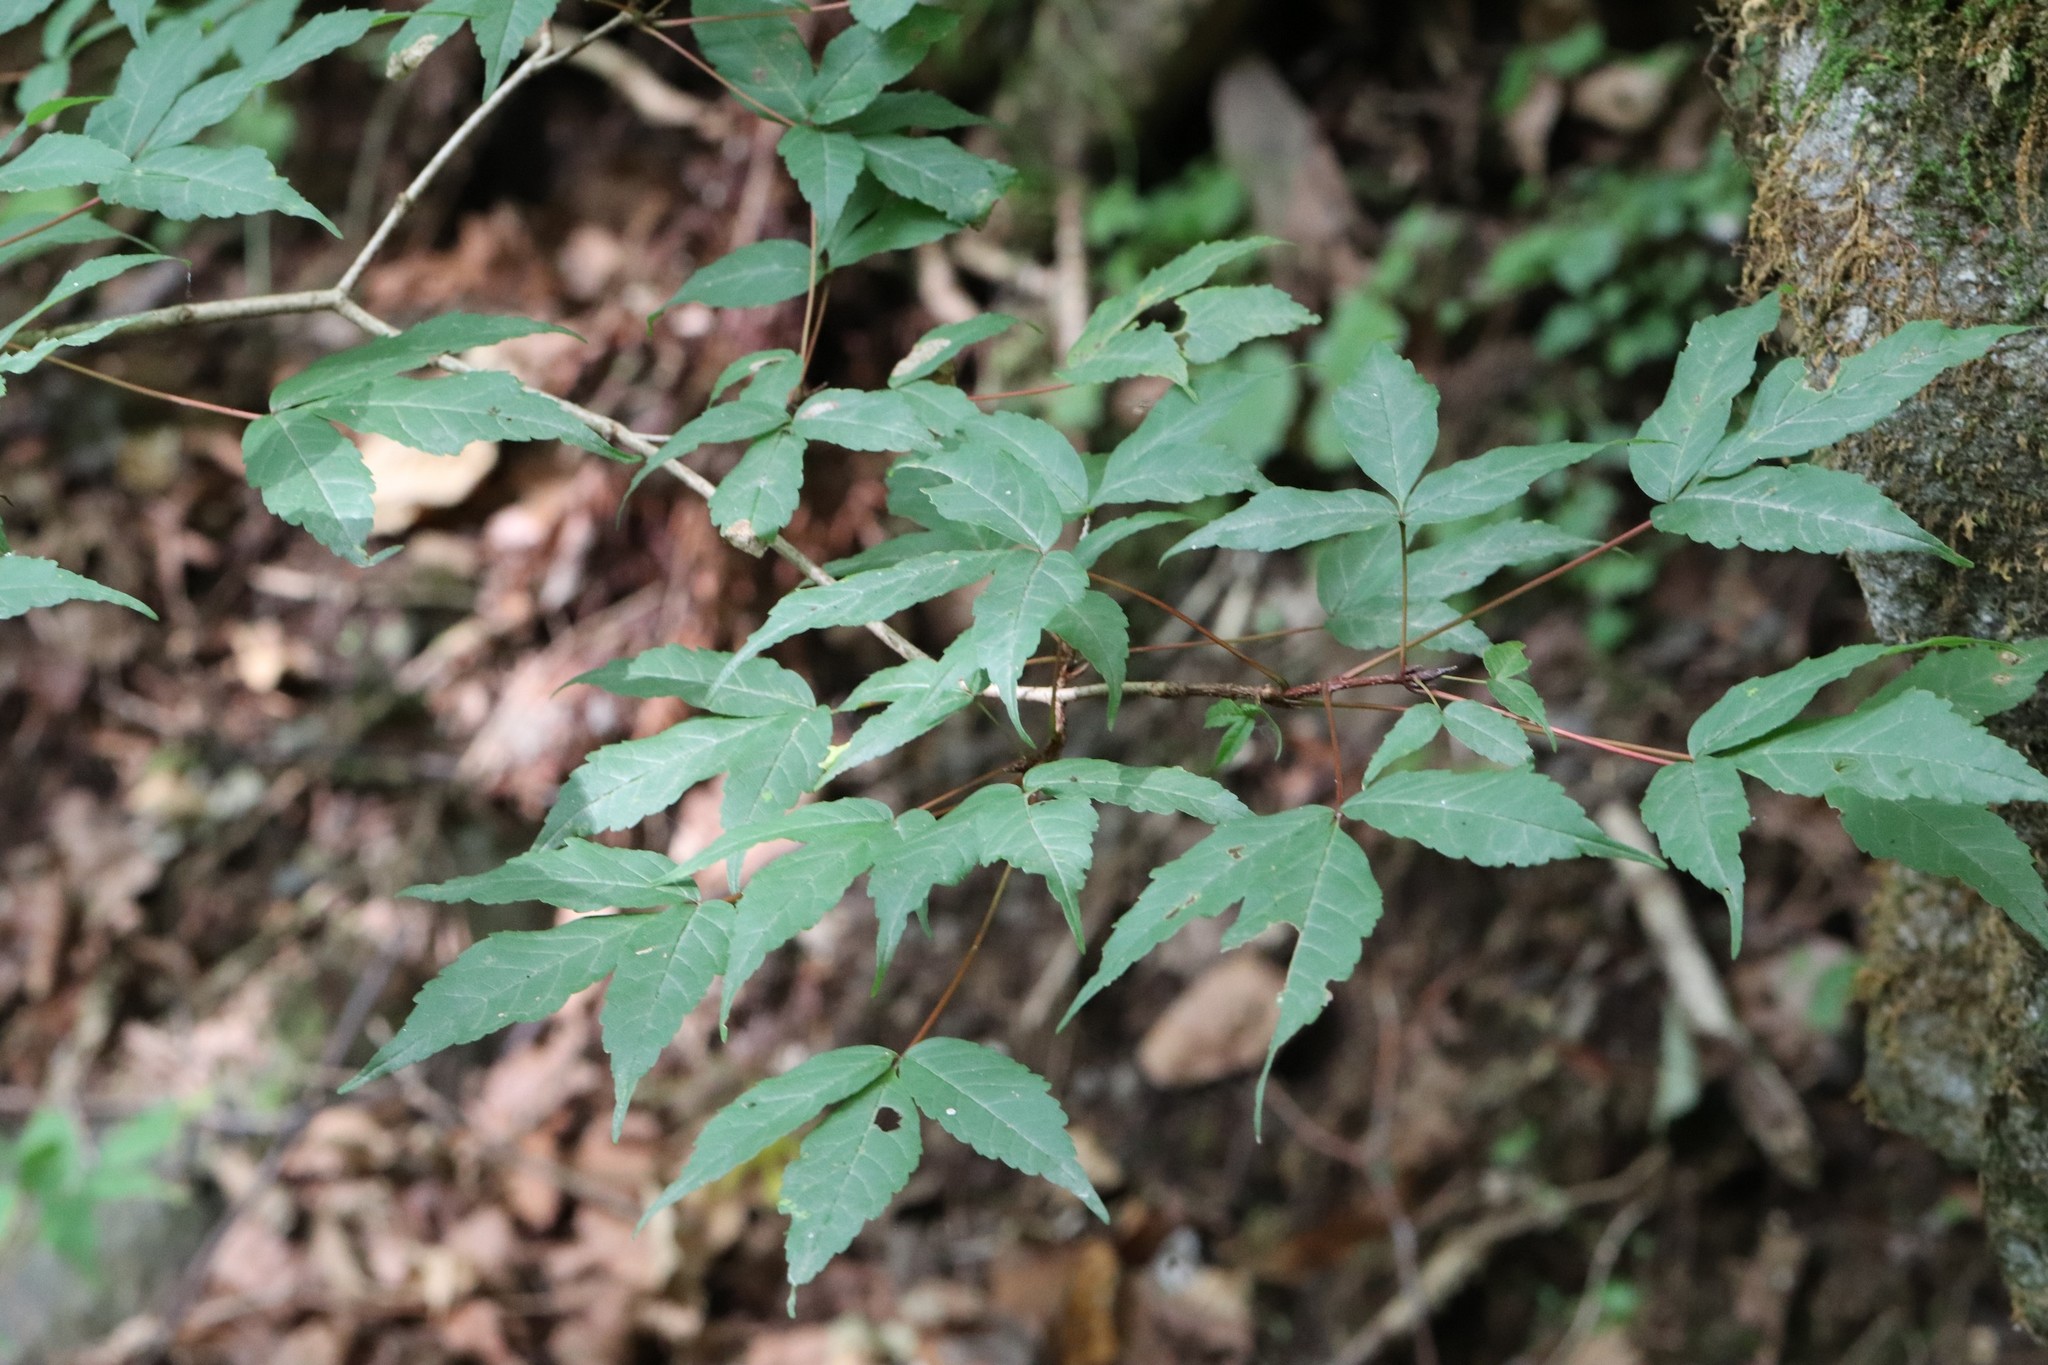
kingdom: Plantae
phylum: Tracheophyta
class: Magnoliopsida
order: Sapindales
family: Sapindaceae
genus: Acer
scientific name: Acer mandshuricum
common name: Manchurian maple
